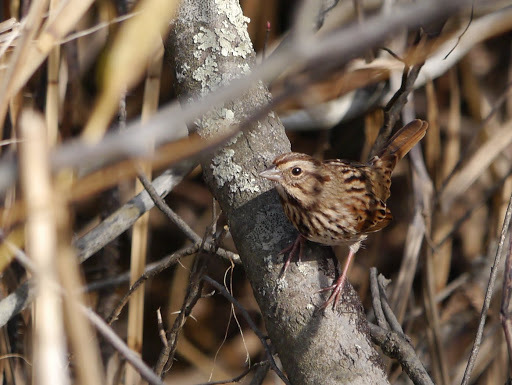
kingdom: Animalia
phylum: Chordata
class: Aves
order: Passeriformes
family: Passerellidae
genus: Melospiza
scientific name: Melospiza melodia
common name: Song sparrow
